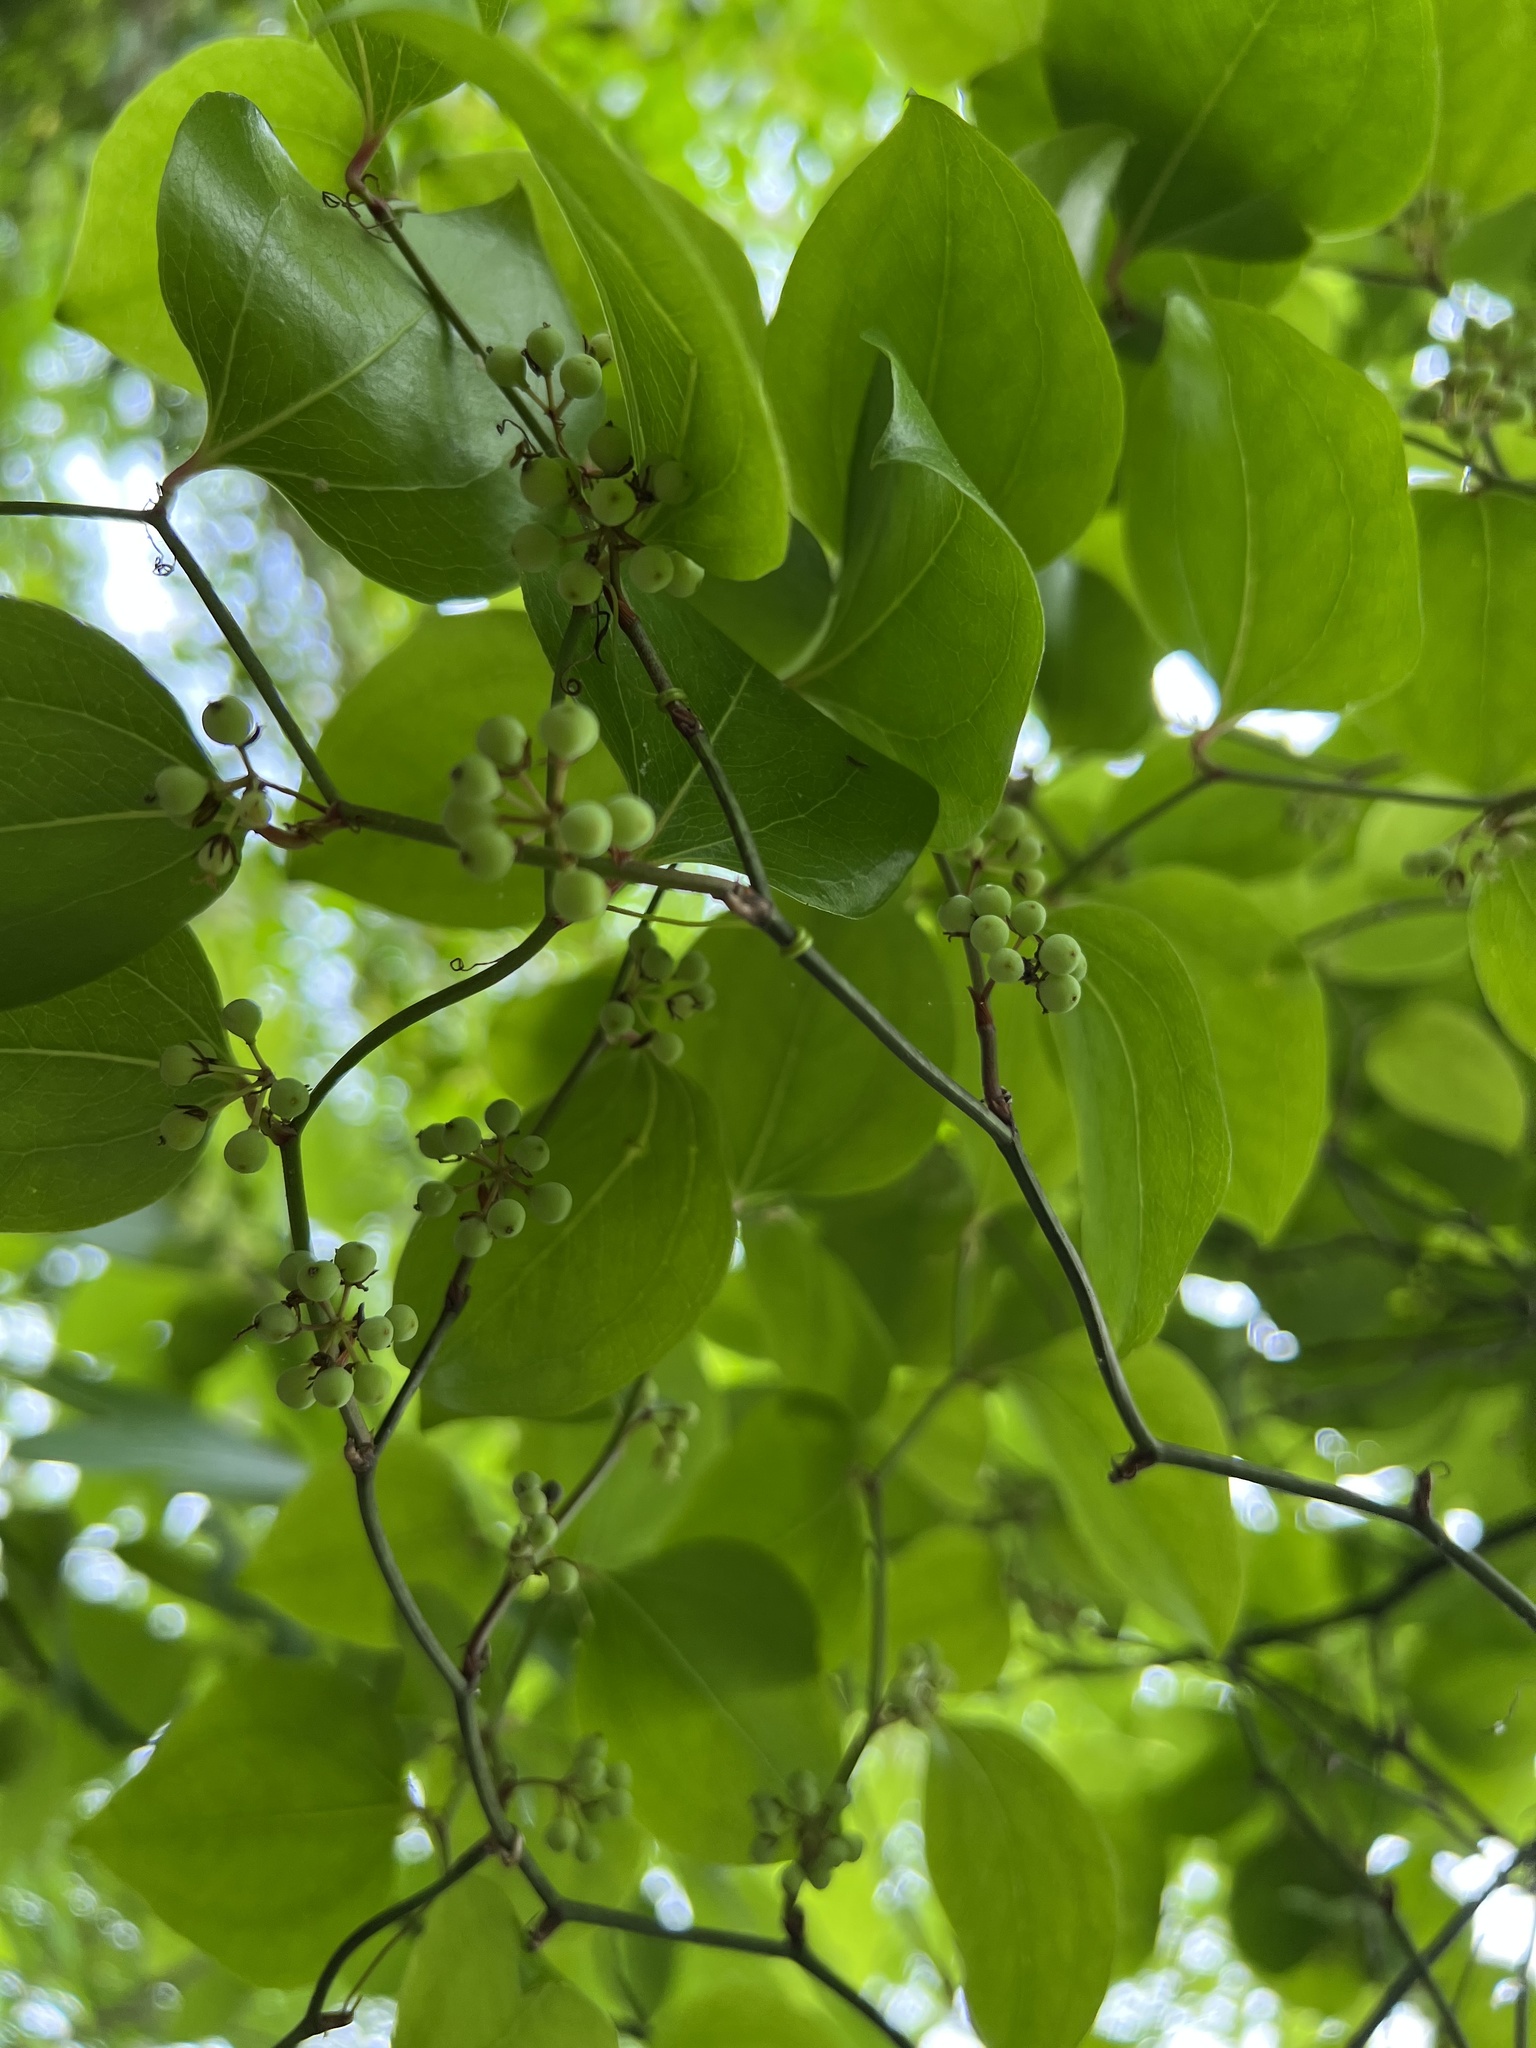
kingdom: Plantae
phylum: Tracheophyta
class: Liliopsida
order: Liliales
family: Smilacaceae
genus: Smilax
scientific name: Smilax rotundifolia
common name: Bullbriar
